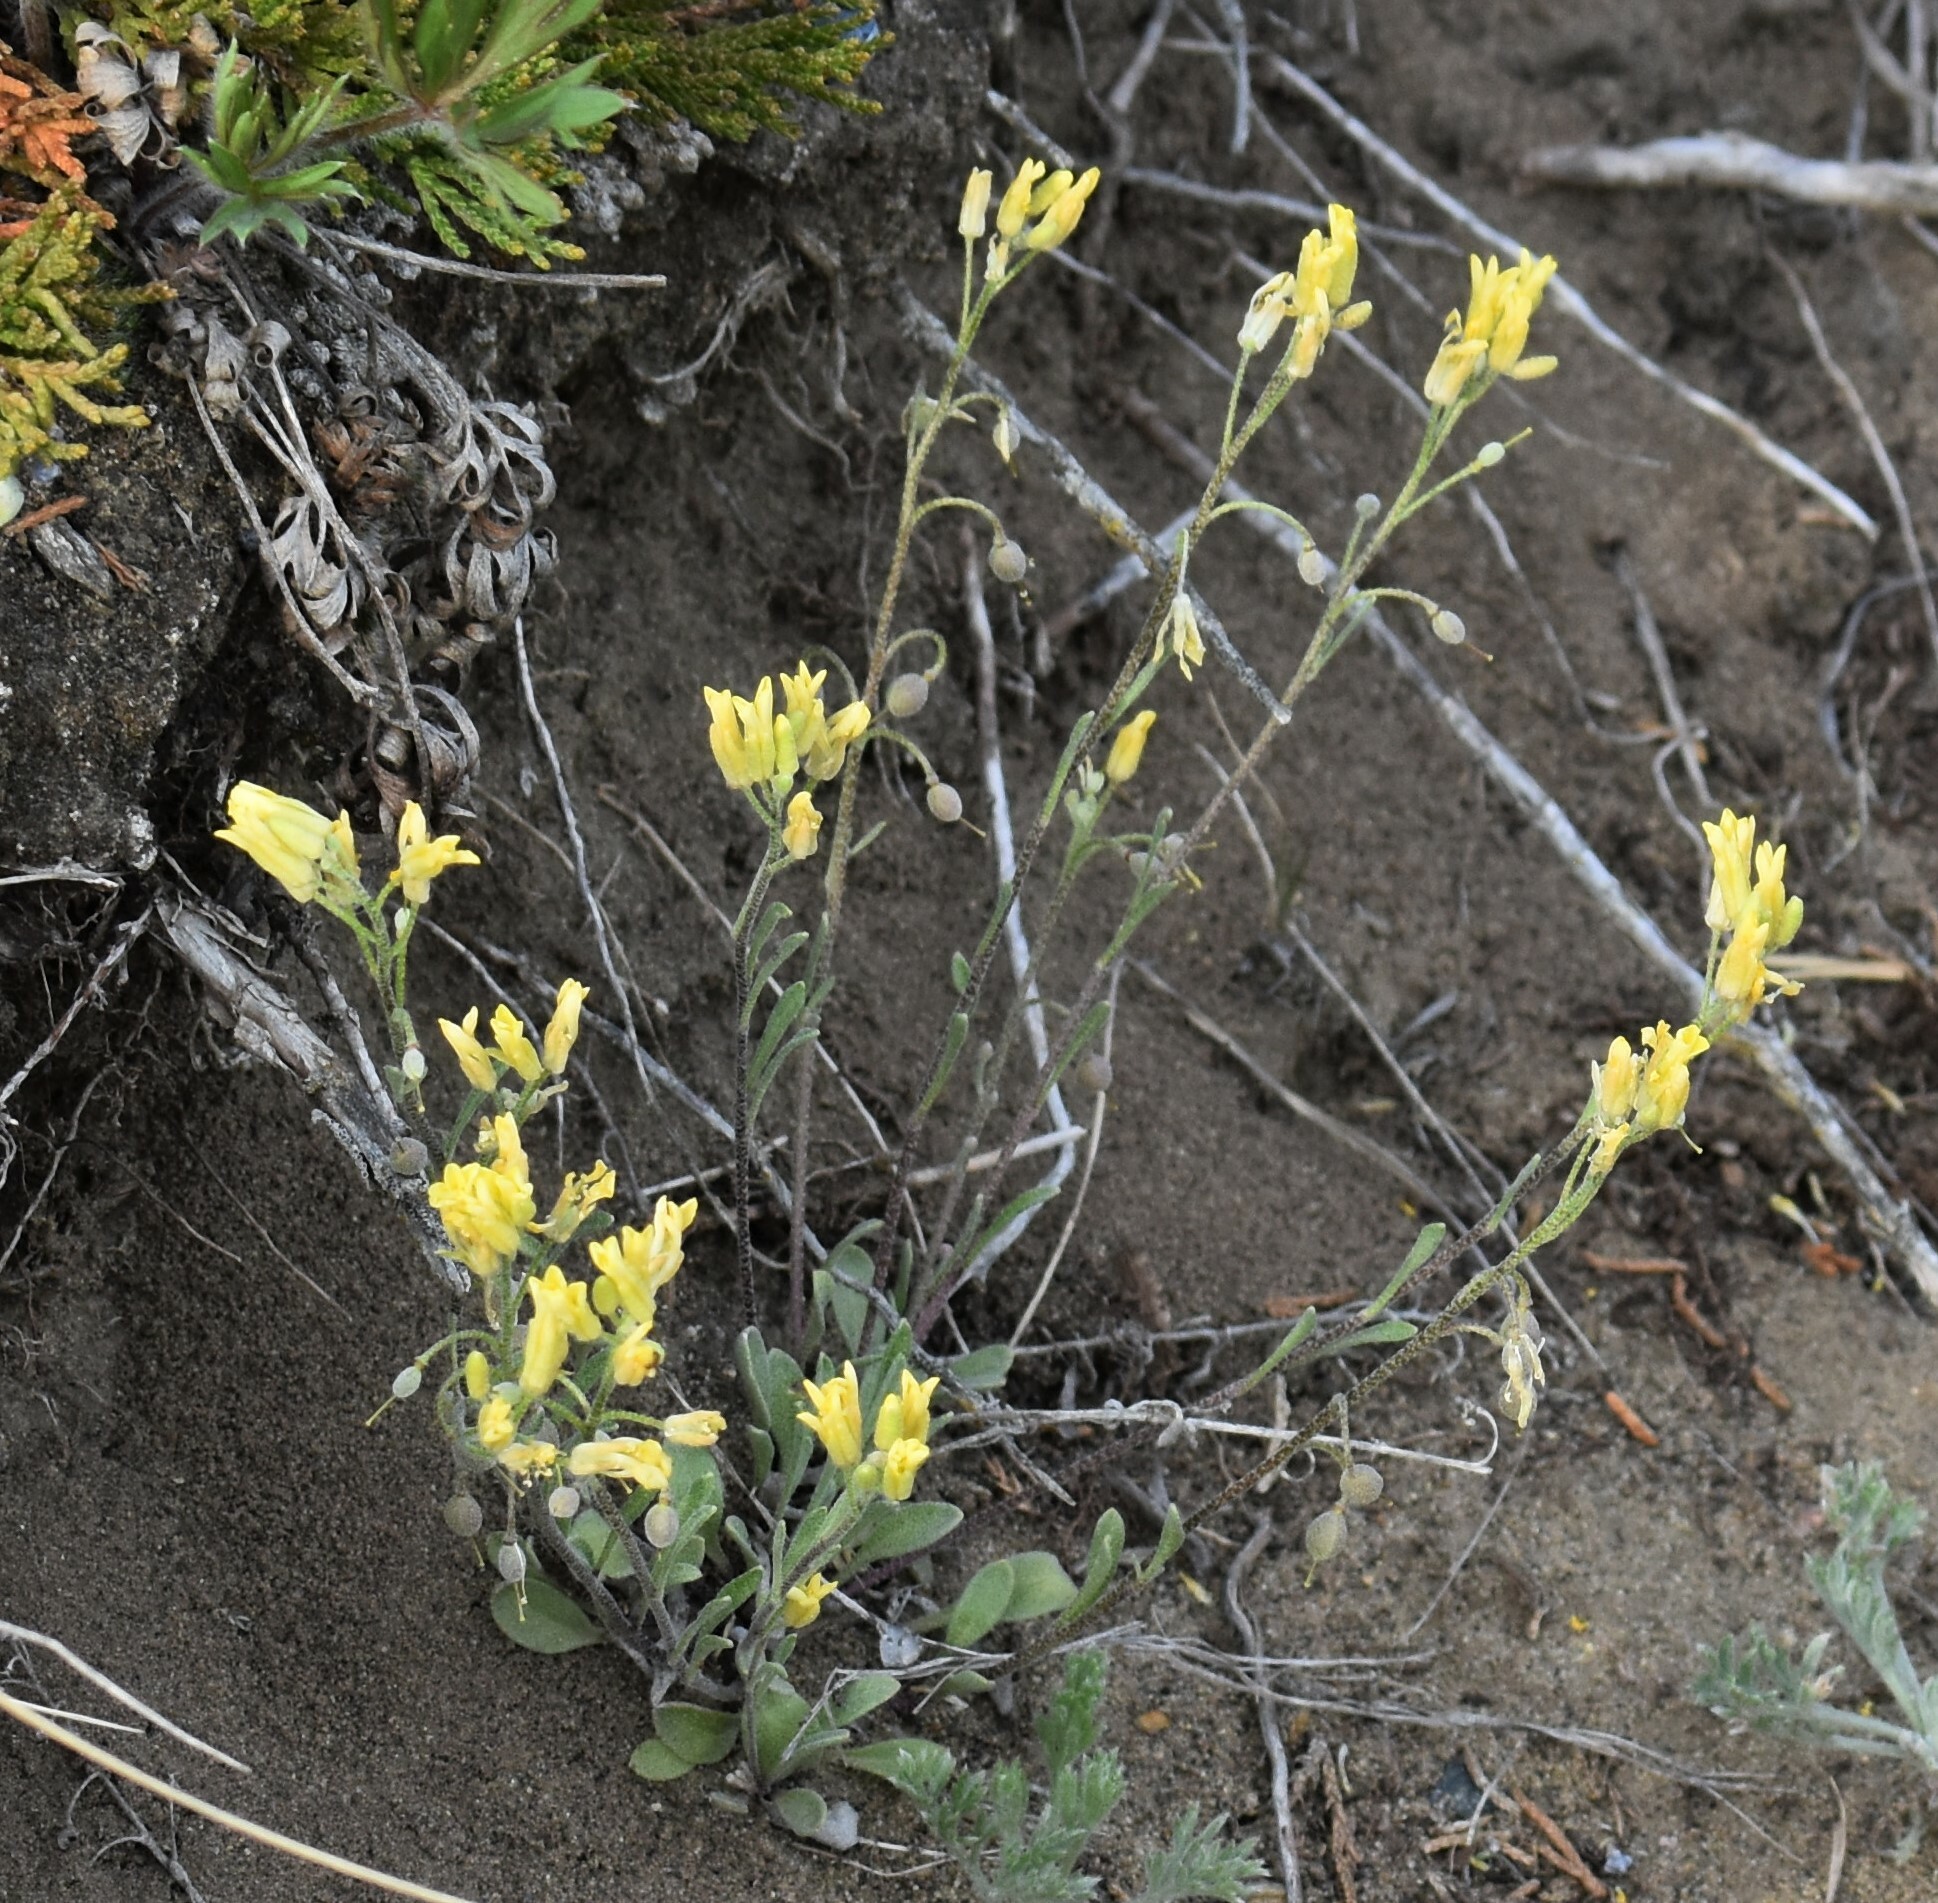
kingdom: Plantae
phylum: Tracheophyta
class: Magnoliopsida
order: Brassicales
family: Brassicaceae
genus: Physaria
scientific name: Physaria arenosa
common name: Great plains bladderpod
